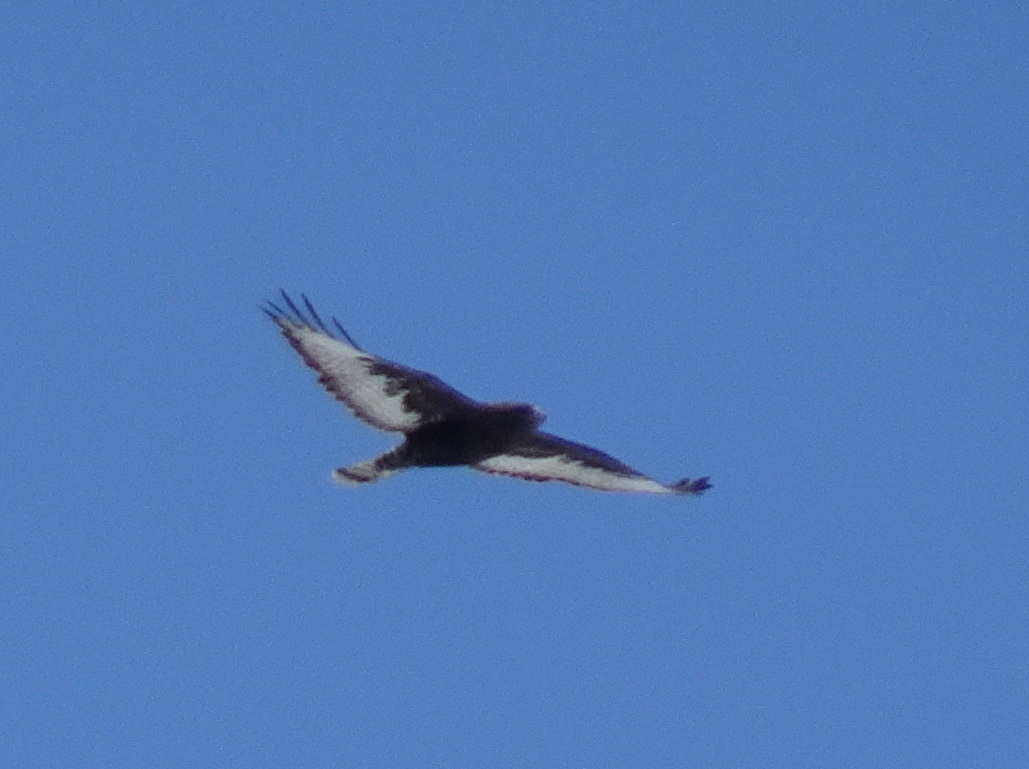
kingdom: Animalia
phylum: Chordata
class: Aves
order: Accipitriformes
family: Accipitridae
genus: Buteo
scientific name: Buteo lagopus
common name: Rough-legged buzzard
